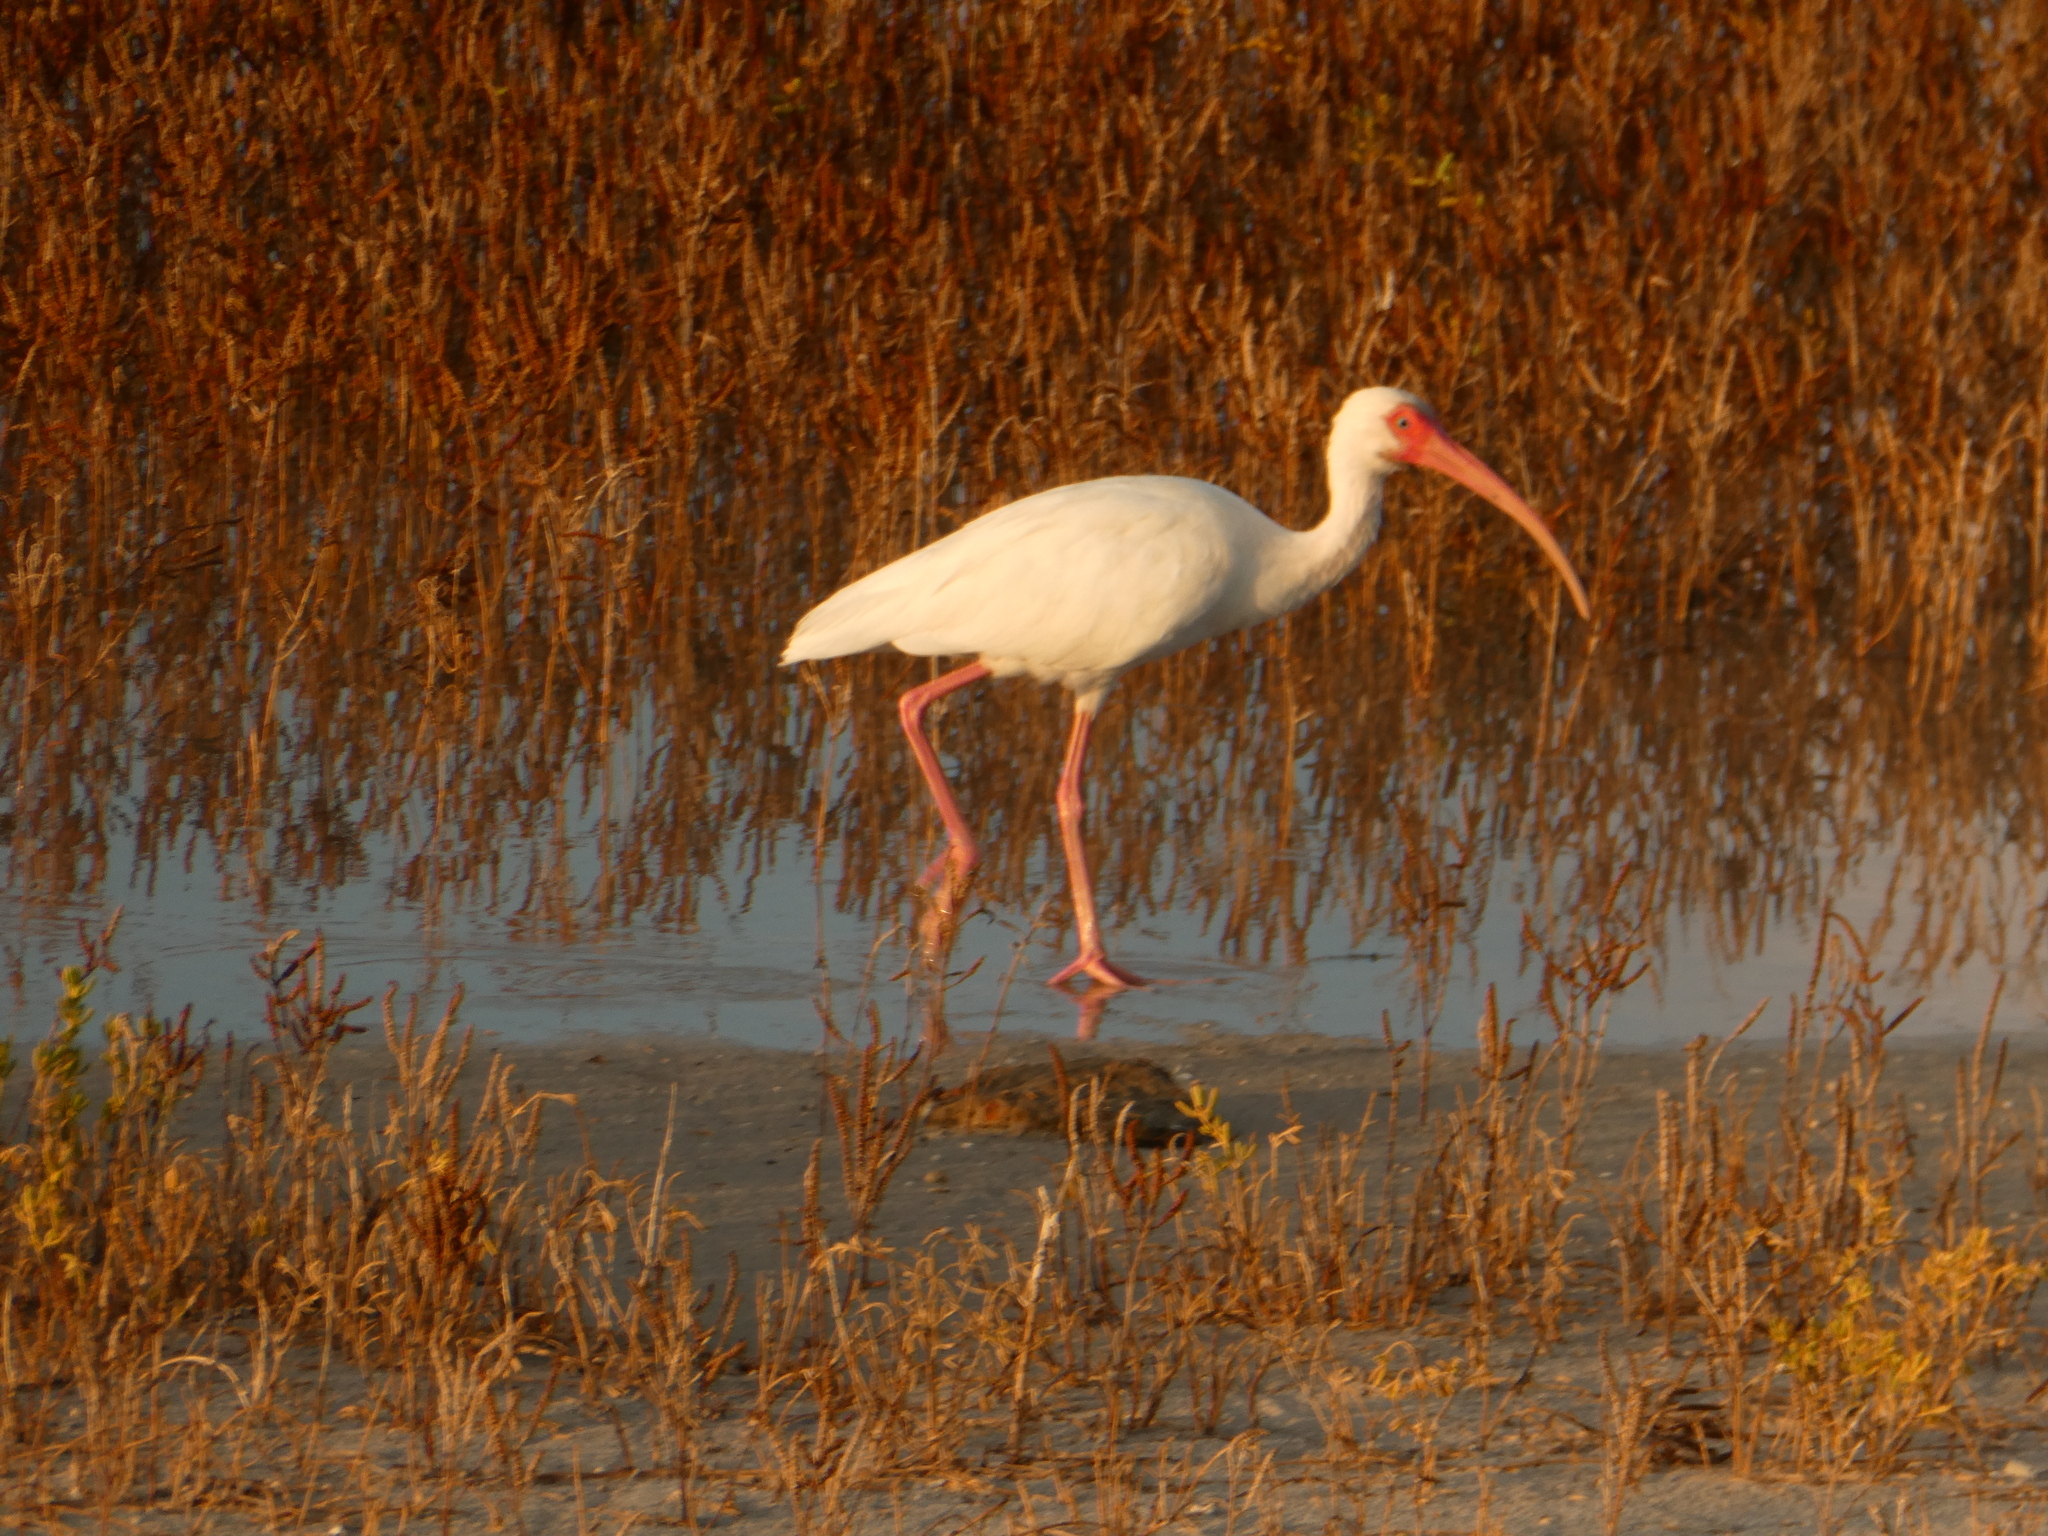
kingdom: Animalia
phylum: Chordata
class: Aves
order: Pelecaniformes
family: Threskiornithidae
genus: Eudocimus
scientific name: Eudocimus albus
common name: White ibis
